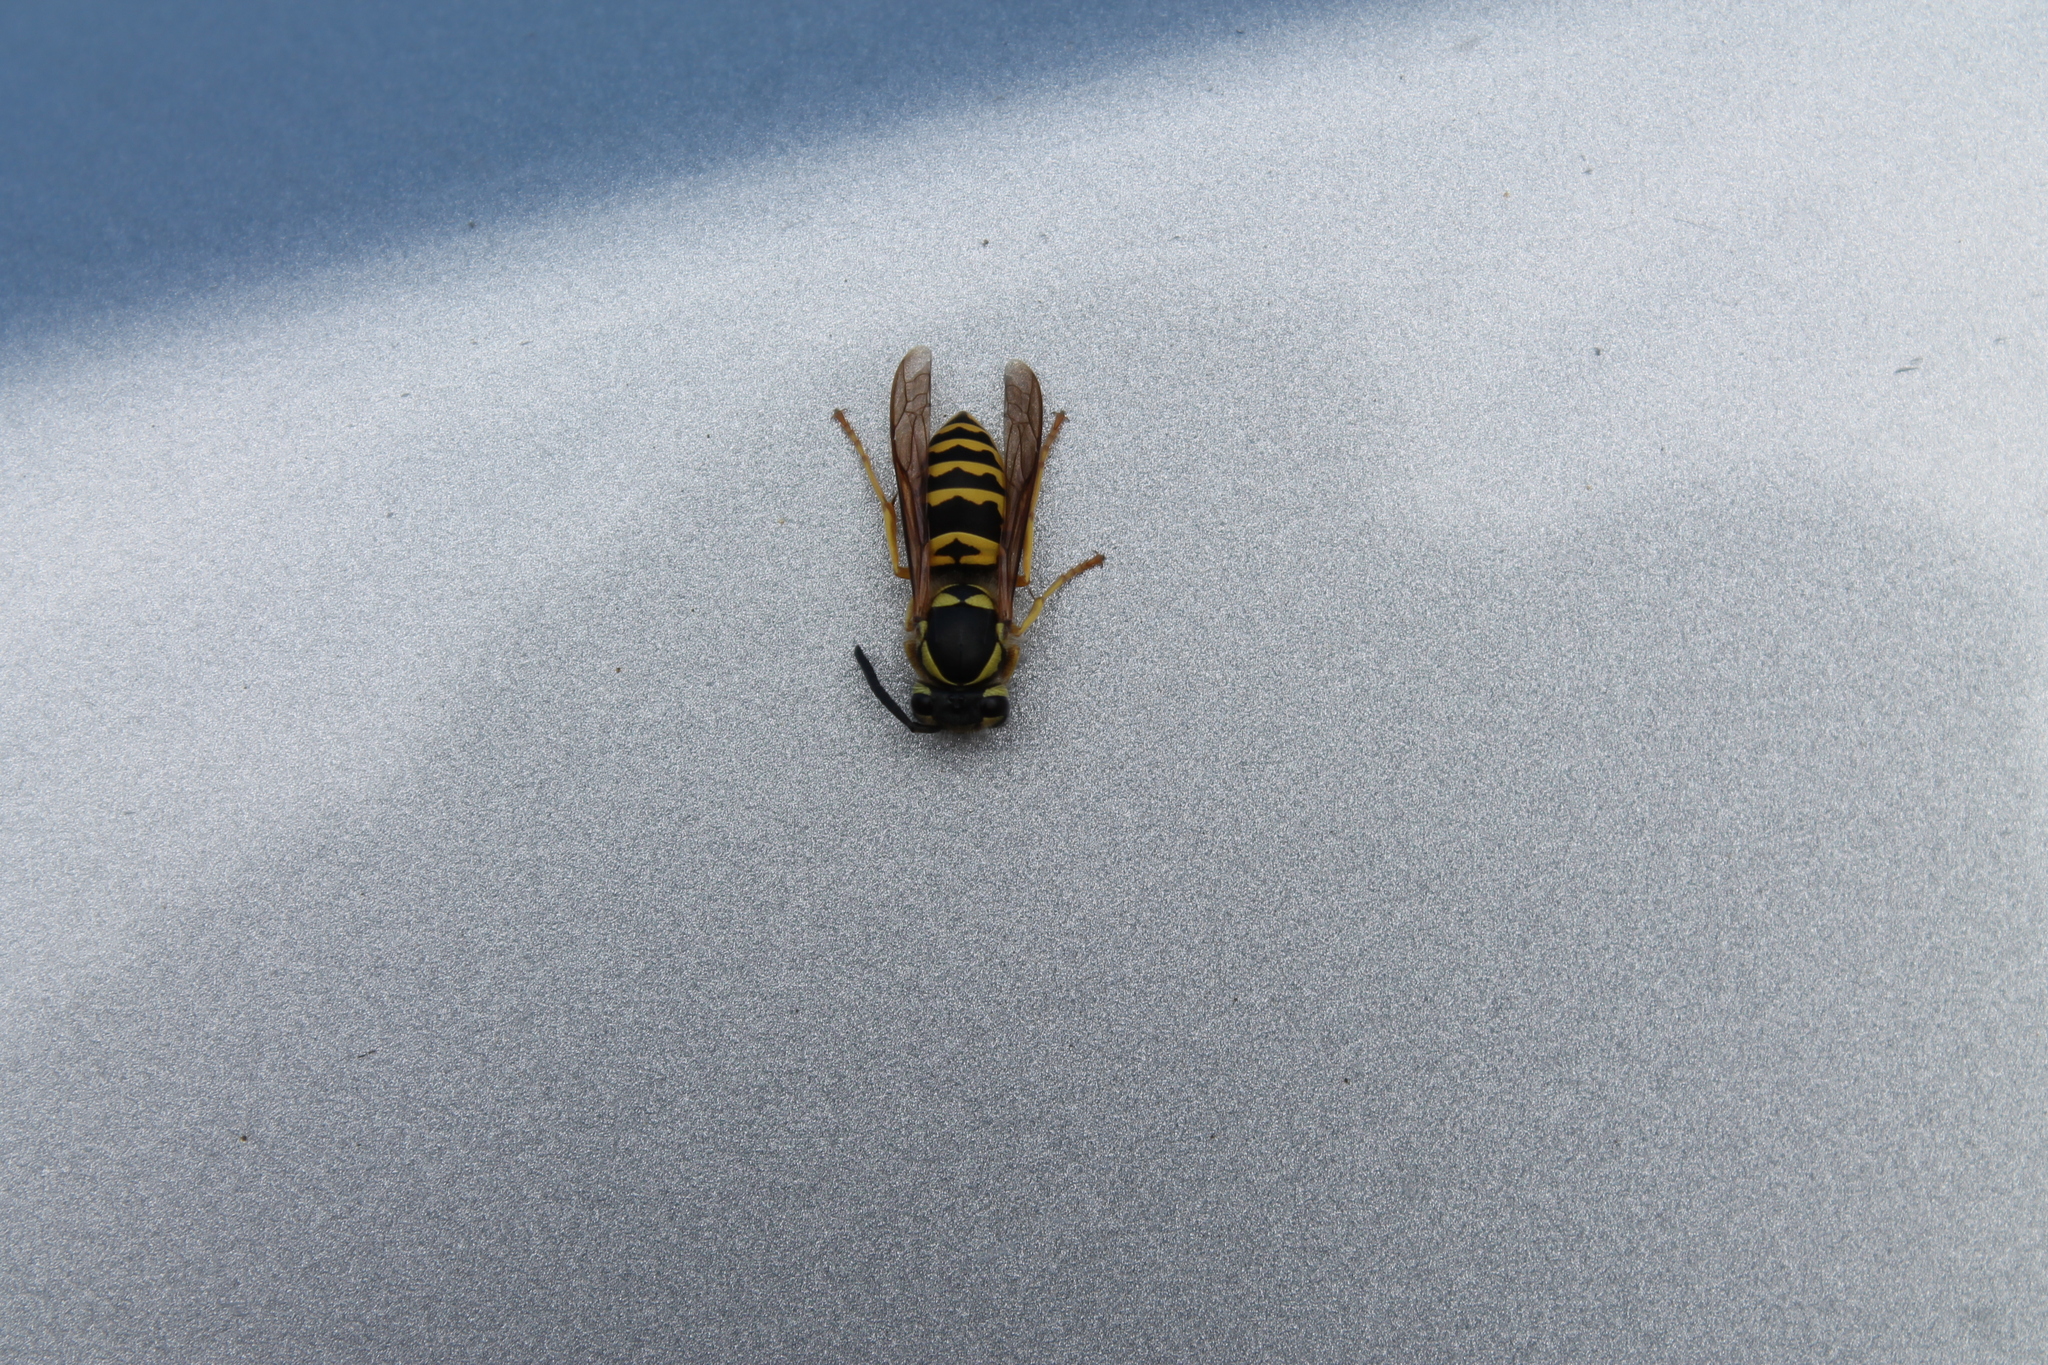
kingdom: Animalia
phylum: Arthropoda
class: Insecta
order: Hymenoptera
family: Vespidae
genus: Vespula
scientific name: Vespula maculifrons
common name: Eastern yellowjacket
